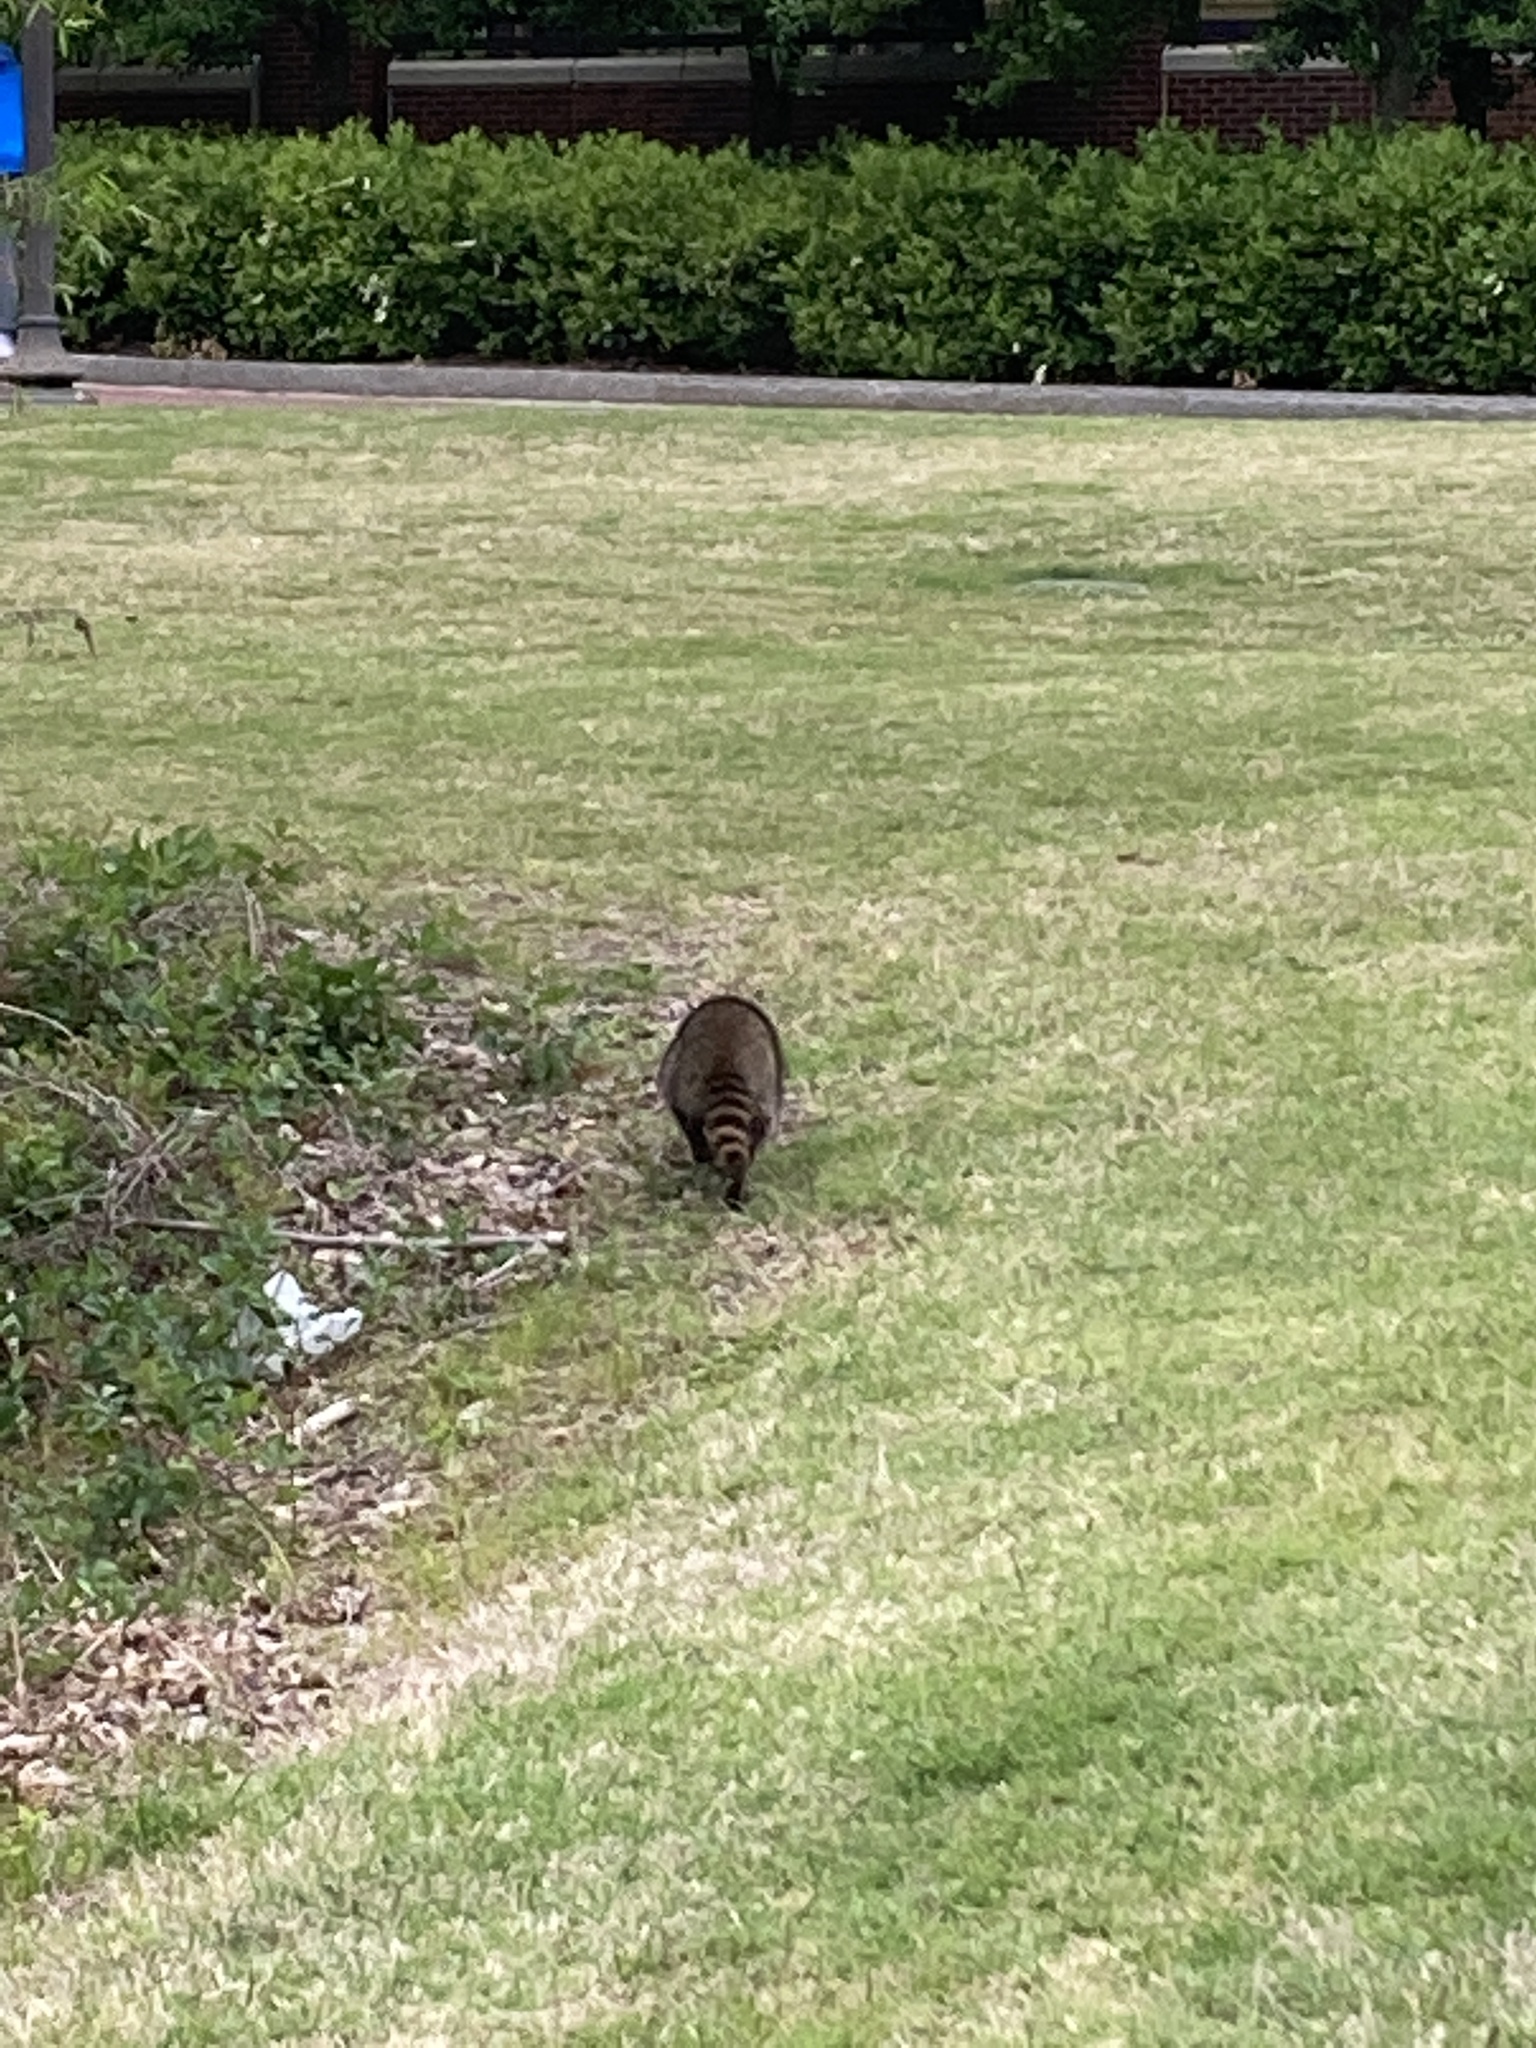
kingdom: Animalia
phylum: Chordata
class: Mammalia
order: Carnivora
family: Procyonidae
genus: Procyon
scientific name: Procyon lotor
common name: Raccoon
